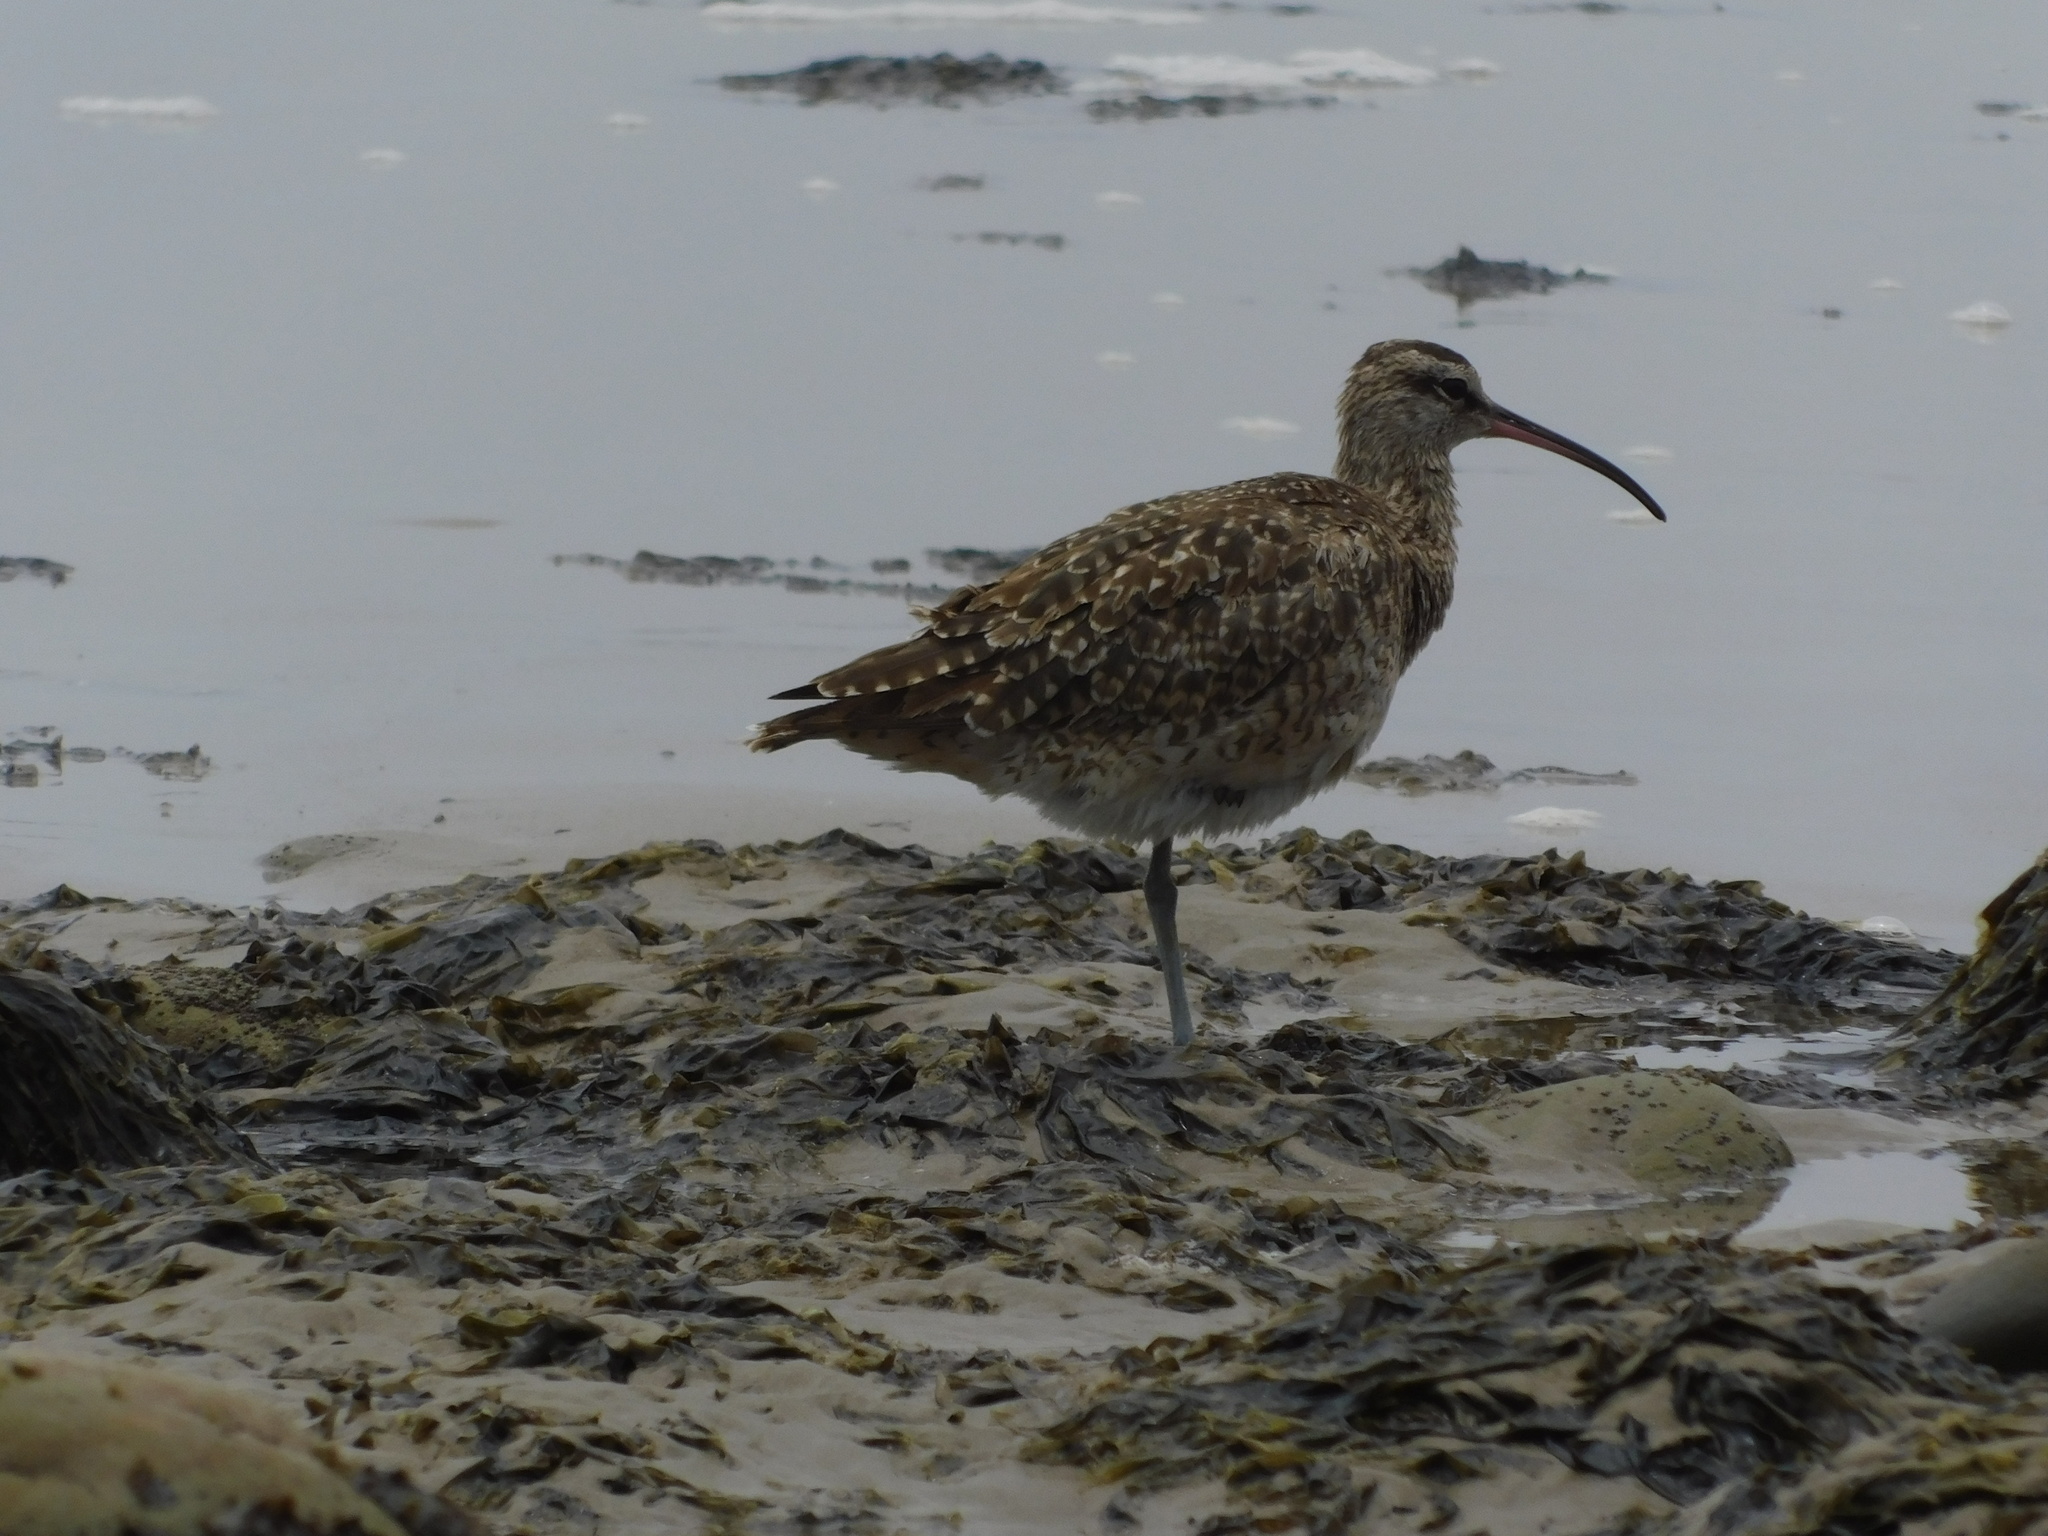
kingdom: Animalia
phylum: Chordata
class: Aves
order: Charadriiformes
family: Scolopacidae
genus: Numenius
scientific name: Numenius phaeopus
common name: Whimbrel
